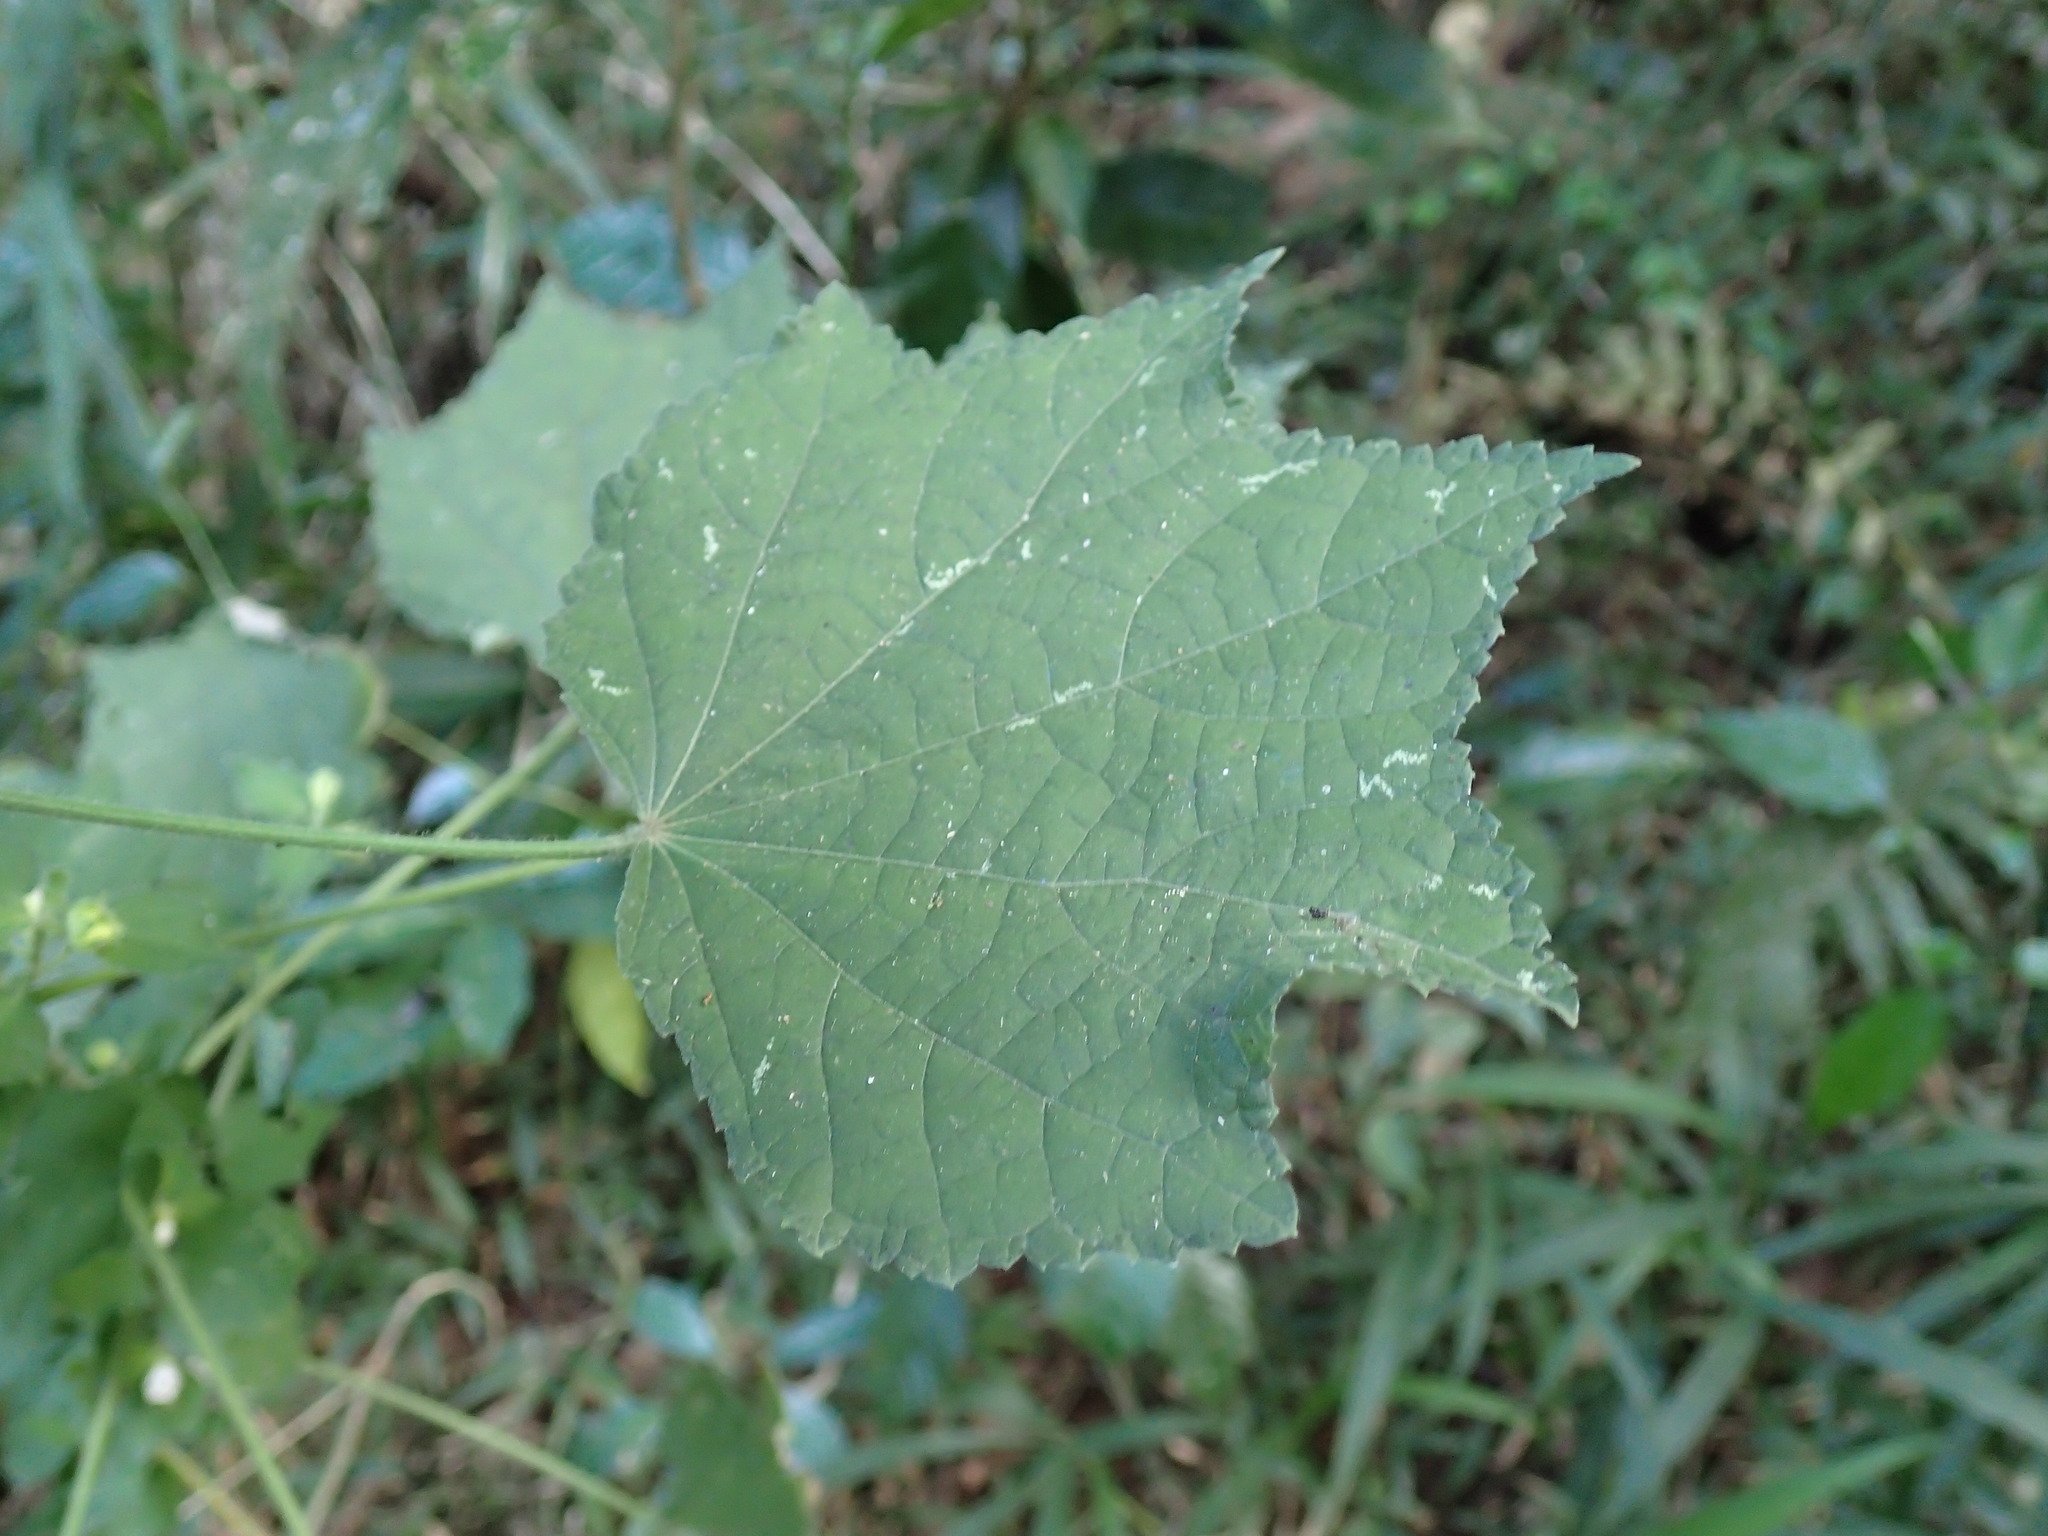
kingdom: Plantae
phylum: Tracheophyta
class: Magnoliopsida
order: Malvales
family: Malvaceae
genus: Pavonia
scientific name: Pavonia columella
